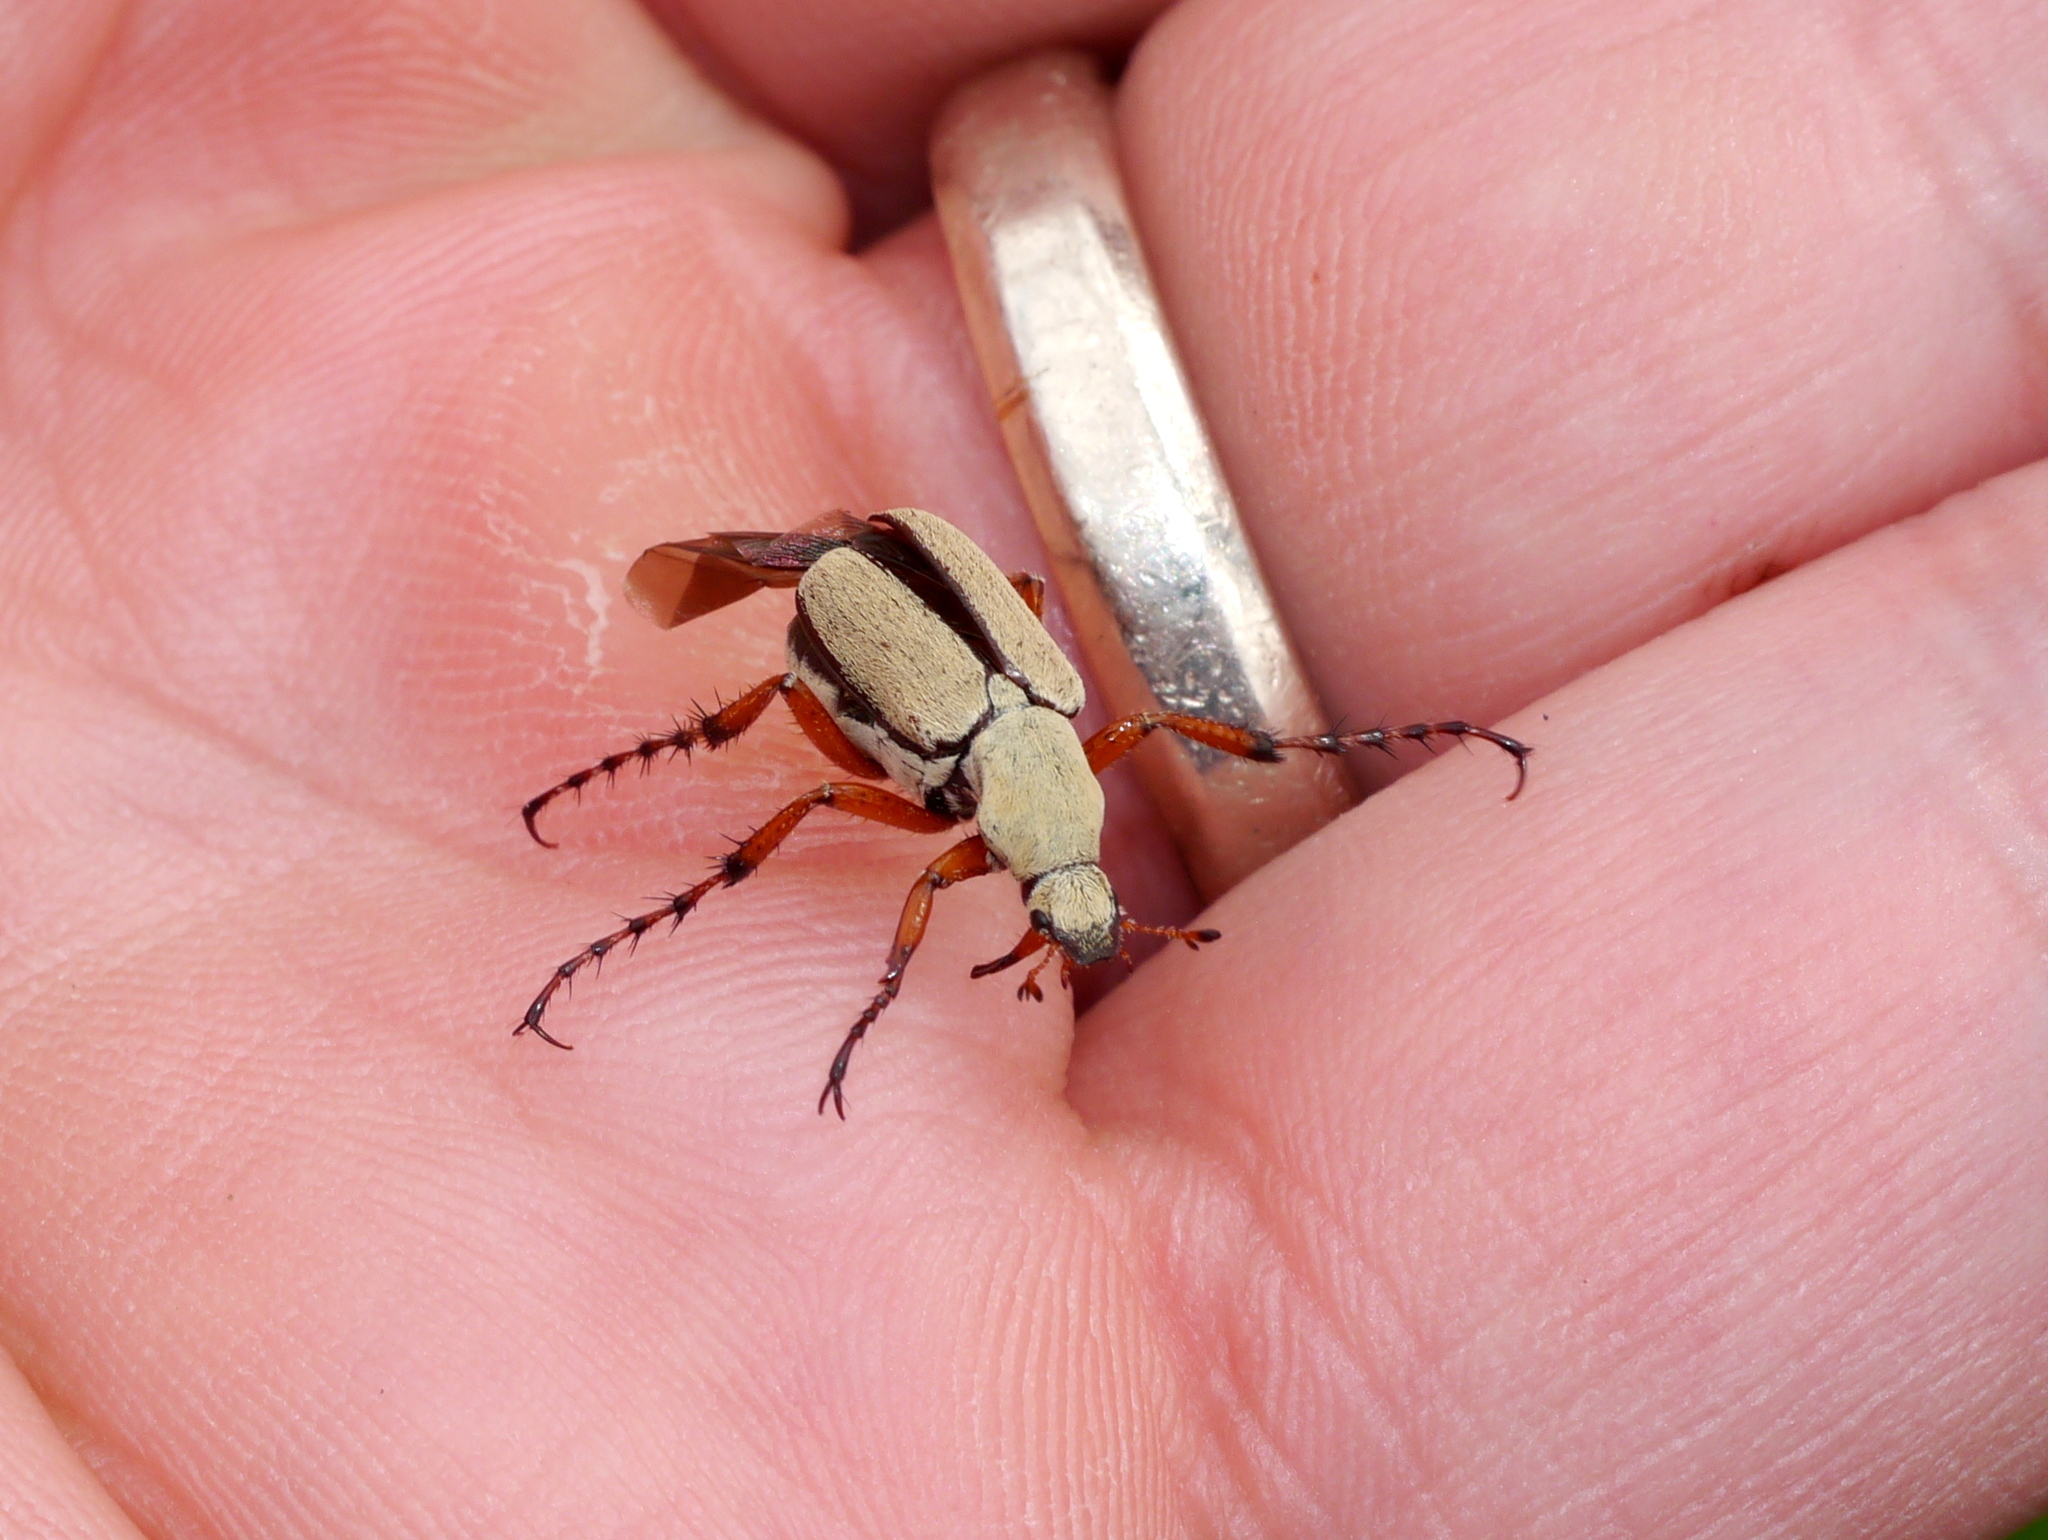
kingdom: Animalia
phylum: Arthropoda
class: Insecta
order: Coleoptera
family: Scarabaeidae
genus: Macrodactylus
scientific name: Macrodactylus uniformis
